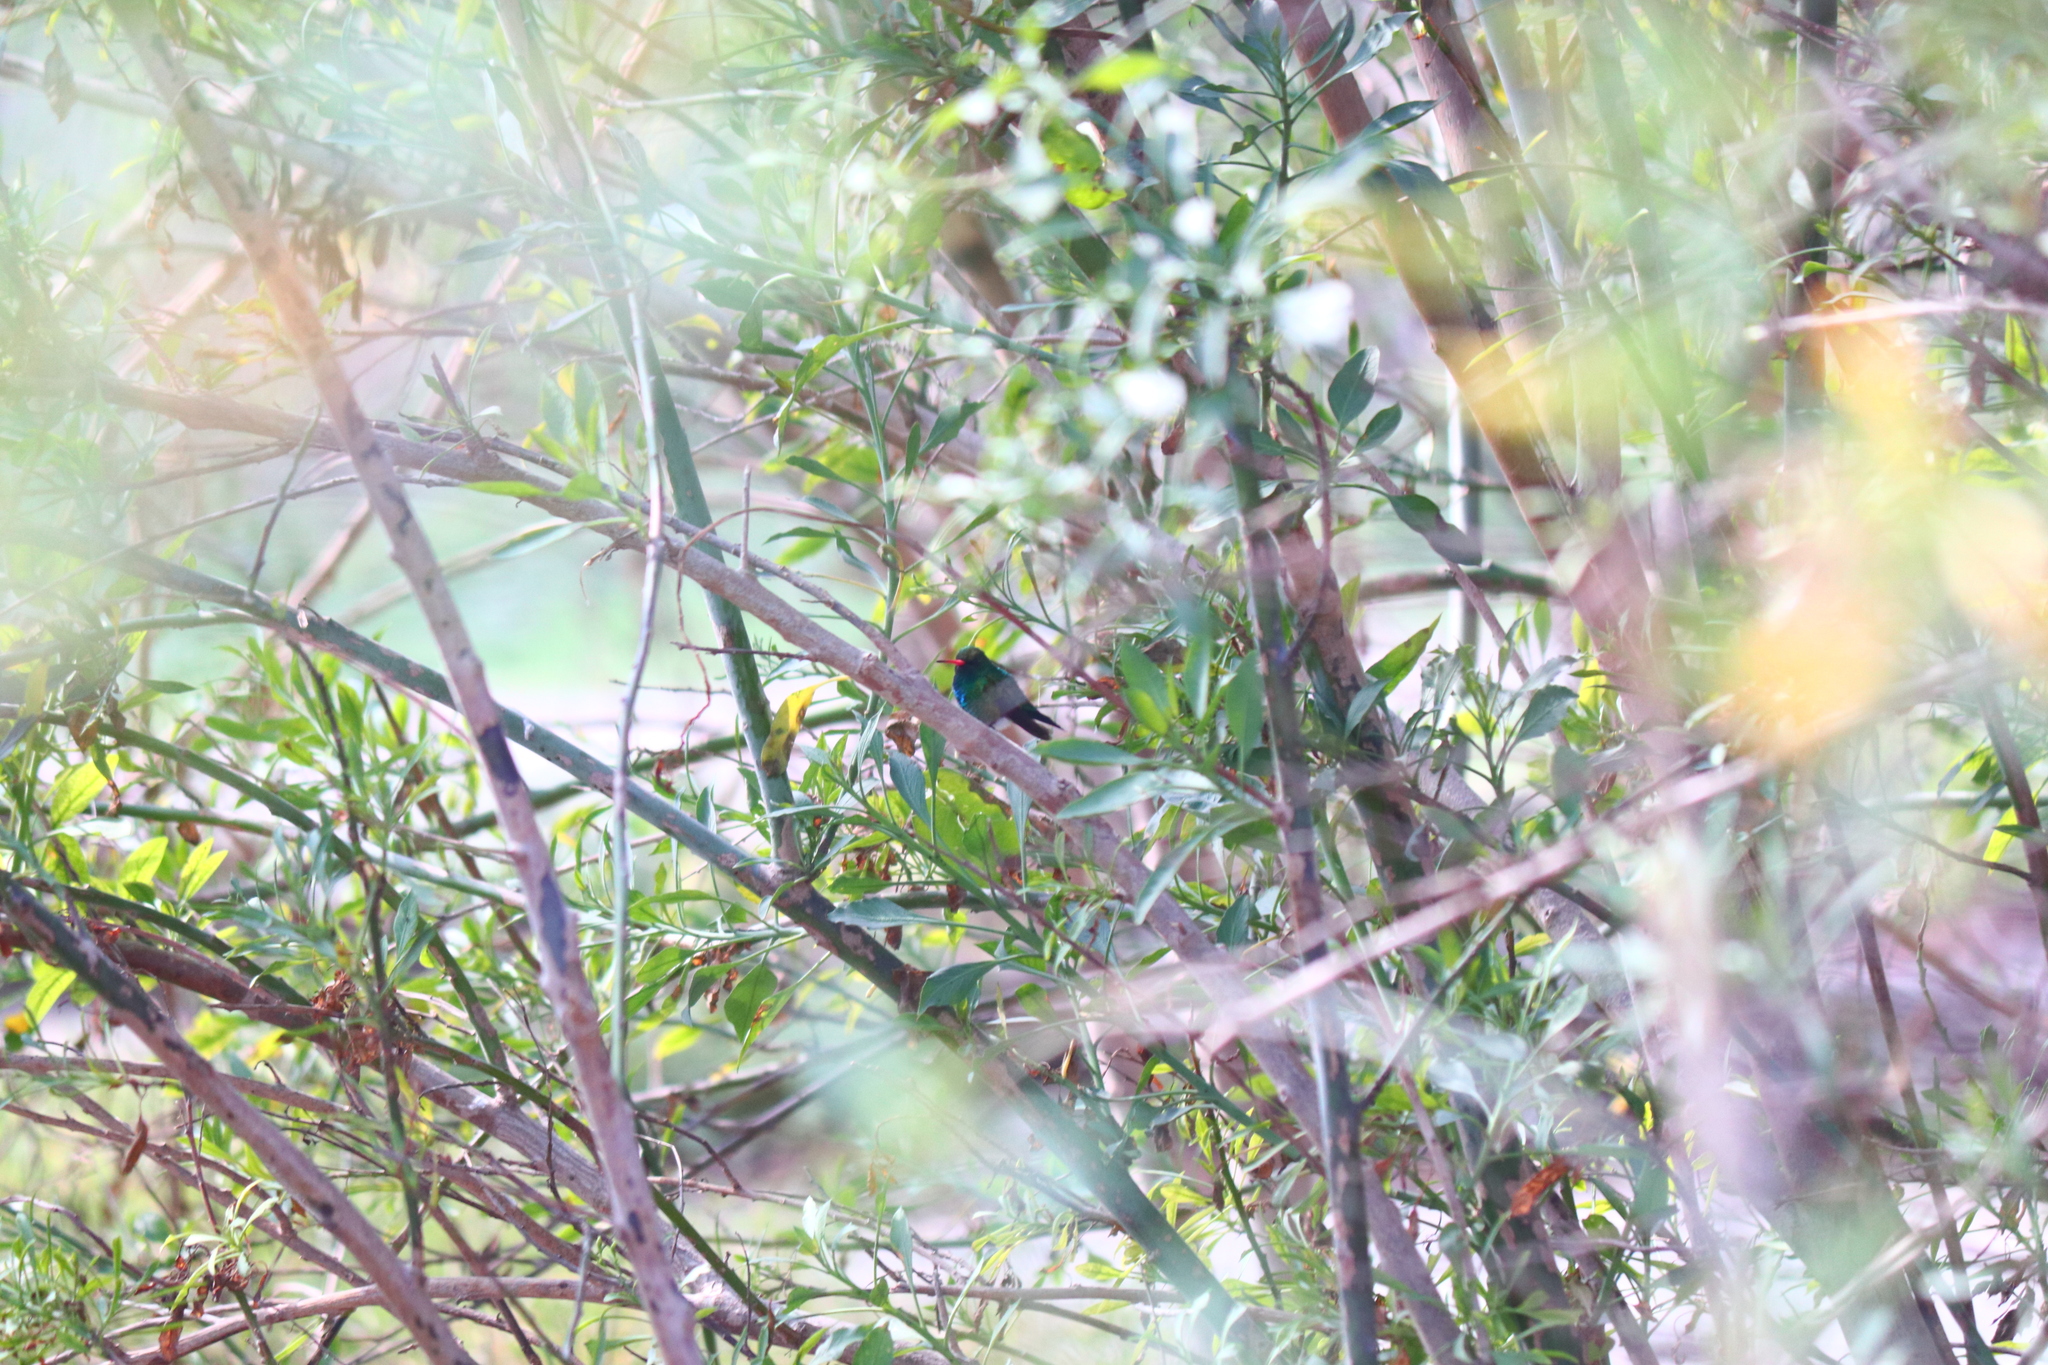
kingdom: Animalia
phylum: Chordata
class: Aves
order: Apodiformes
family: Trochilidae
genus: Chlorostilbon
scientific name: Chlorostilbon lucidus
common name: Glittering-bellied emerald
